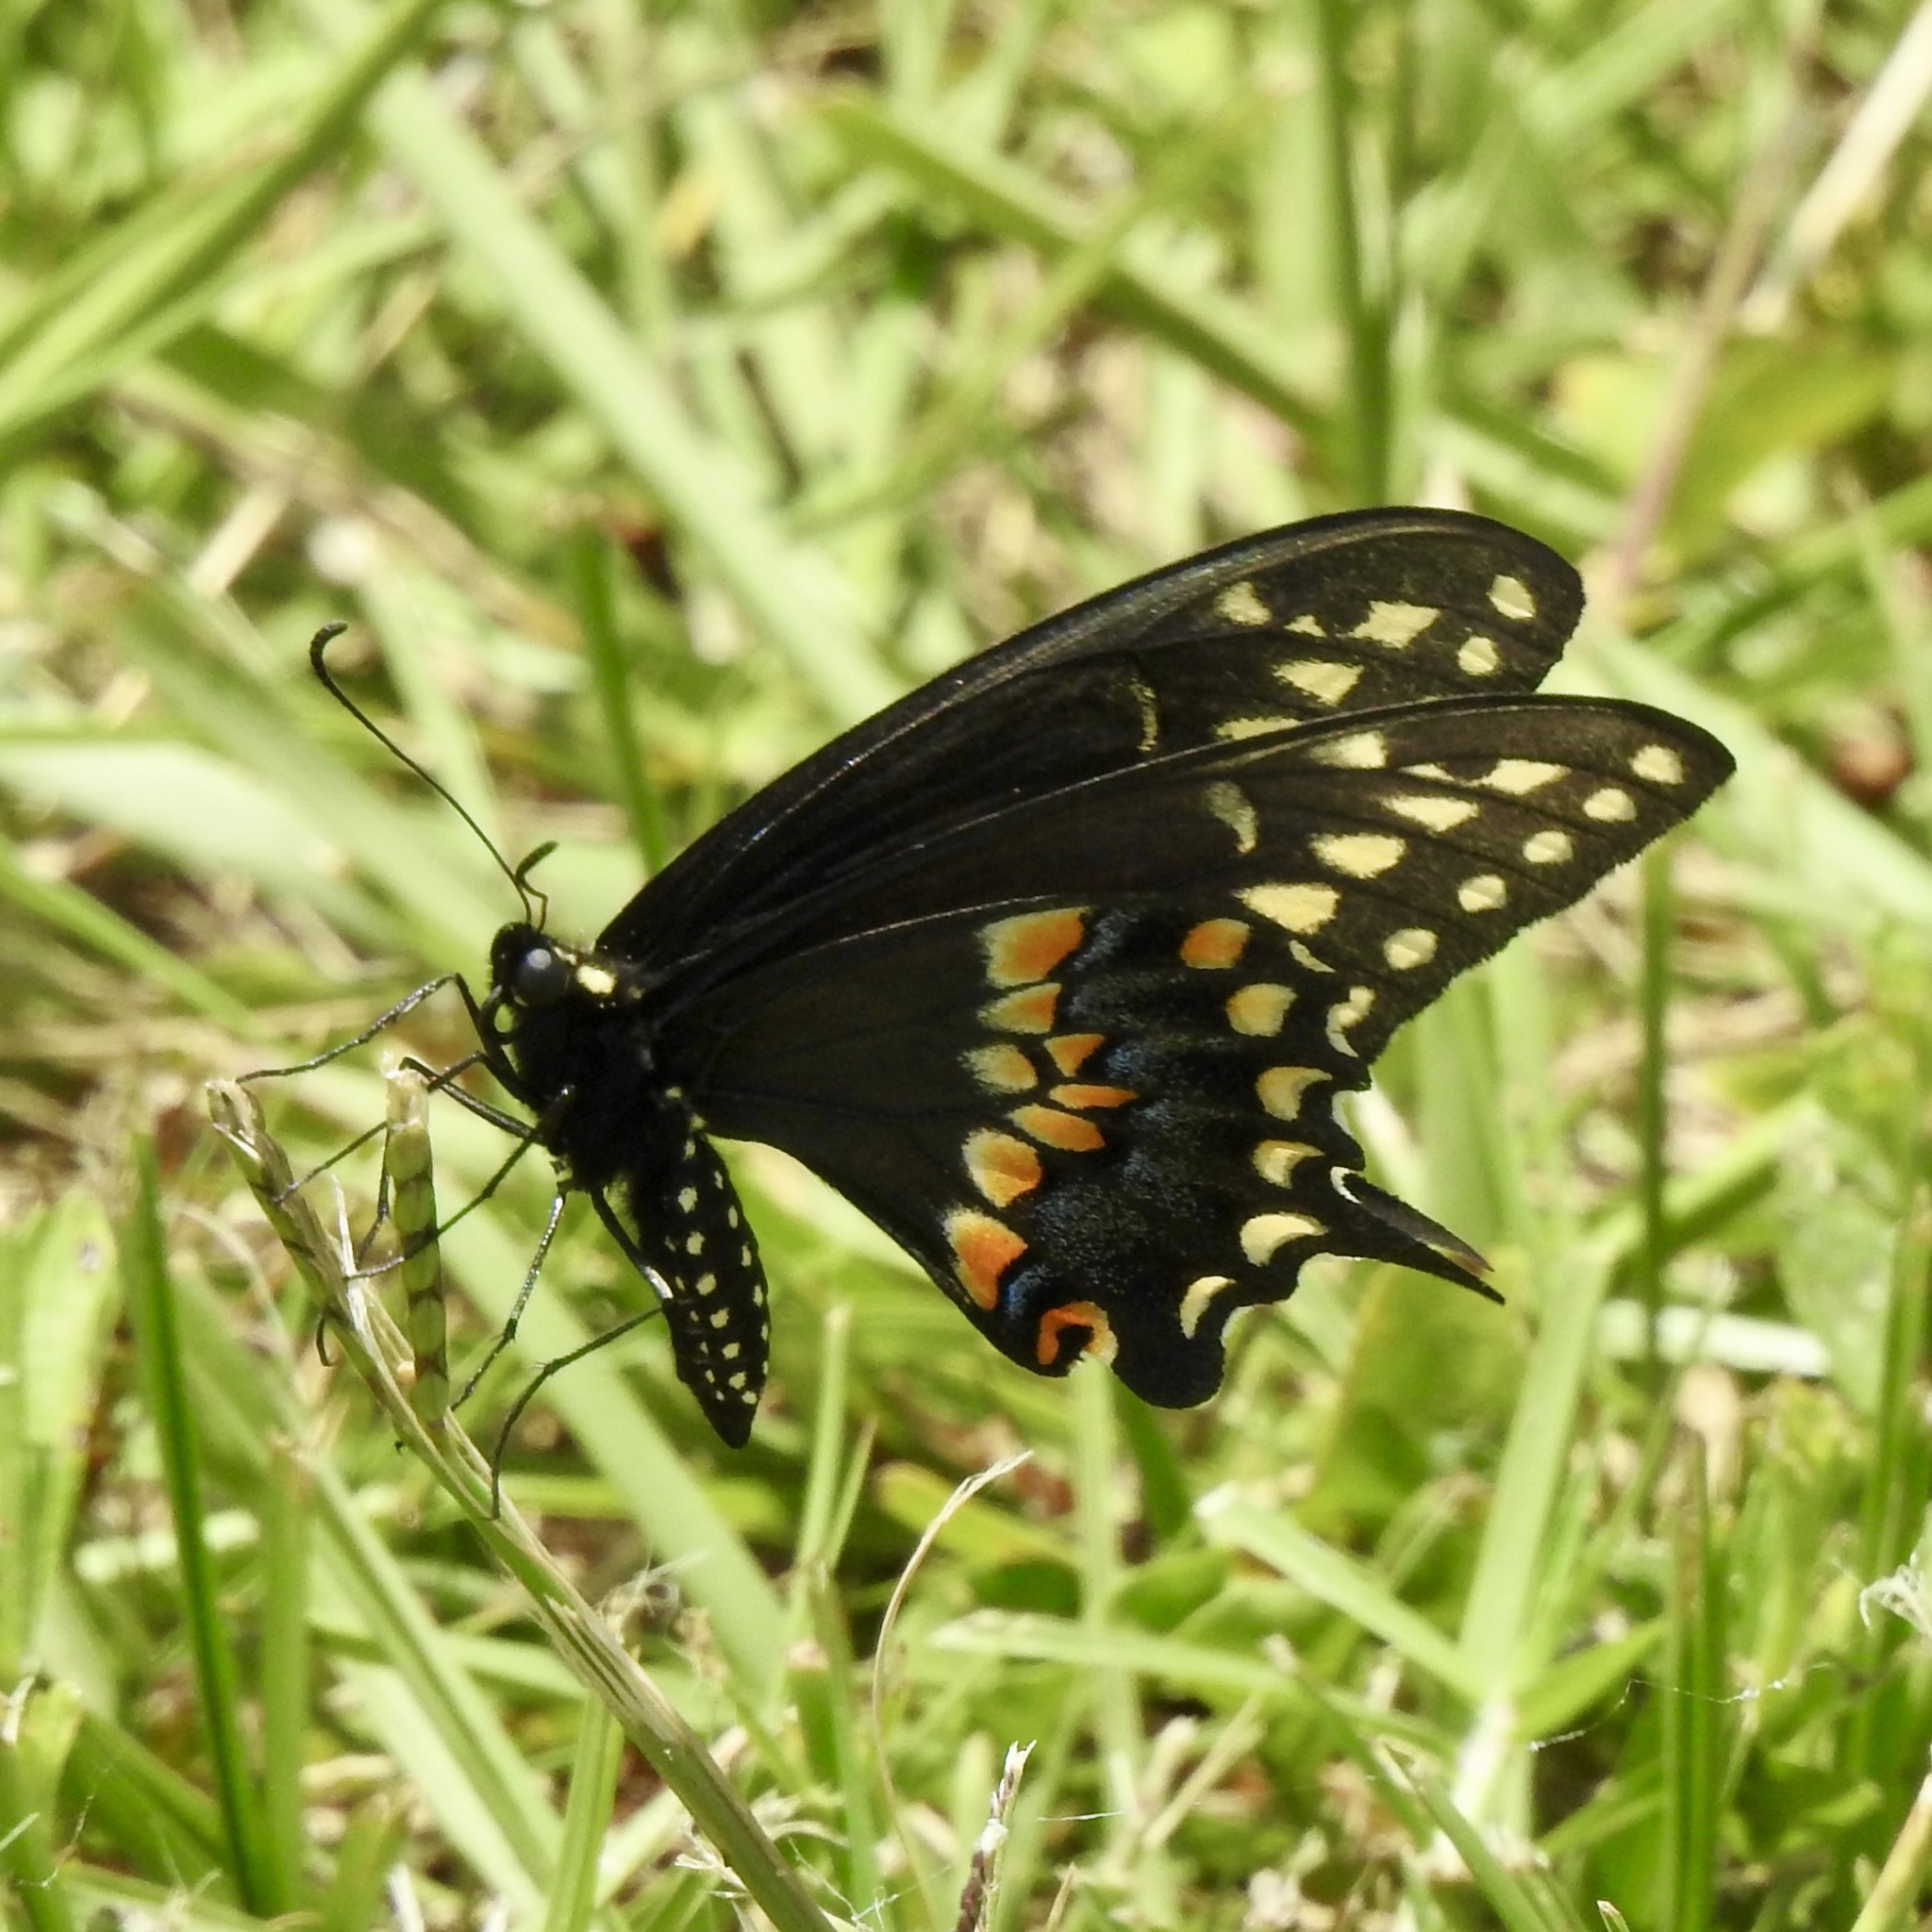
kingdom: Animalia
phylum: Arthropoda
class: Insecta
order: Lepidoptera
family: Papilionidae
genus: Papilio
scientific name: Papilio polyxenes
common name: Black swallowtail
